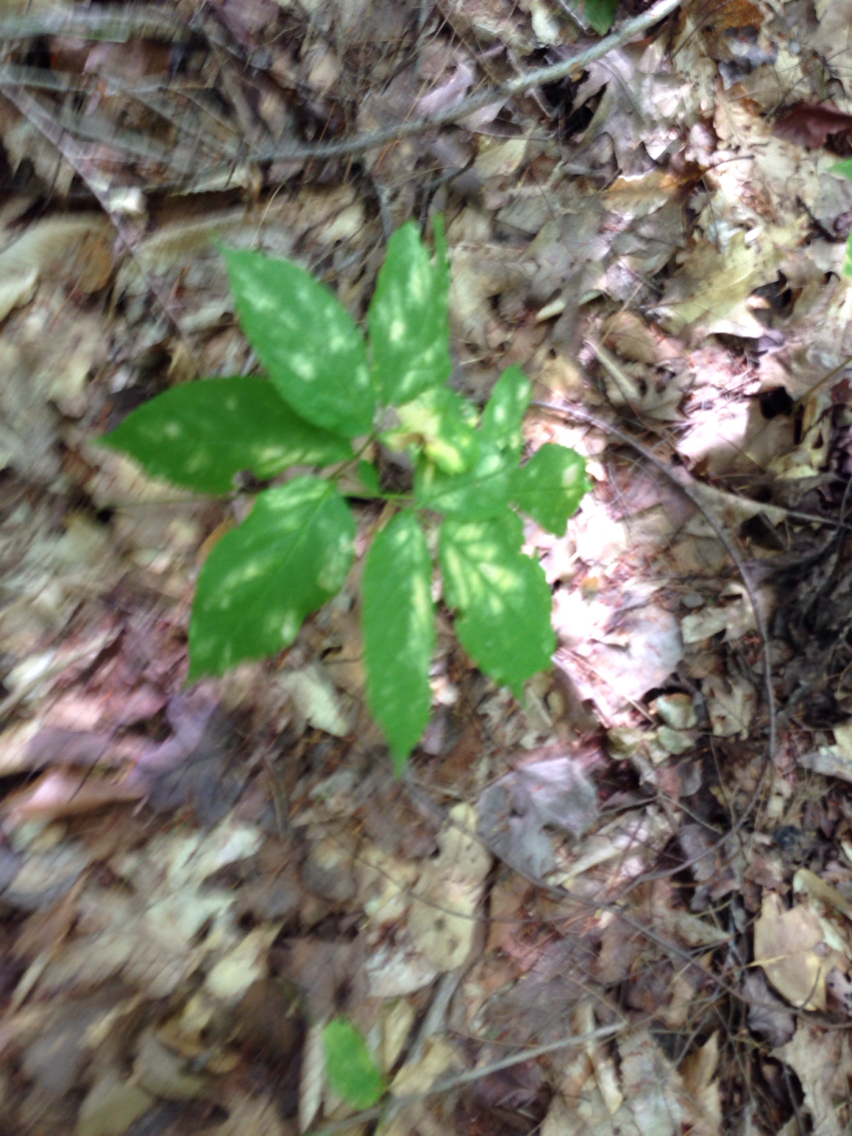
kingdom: Plantae
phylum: Tracheophyta
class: Magnoliopsida
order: Apiales
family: Araliaceae
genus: Aralia
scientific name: Aralia nudicaulis
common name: Wild sarsaparilla
